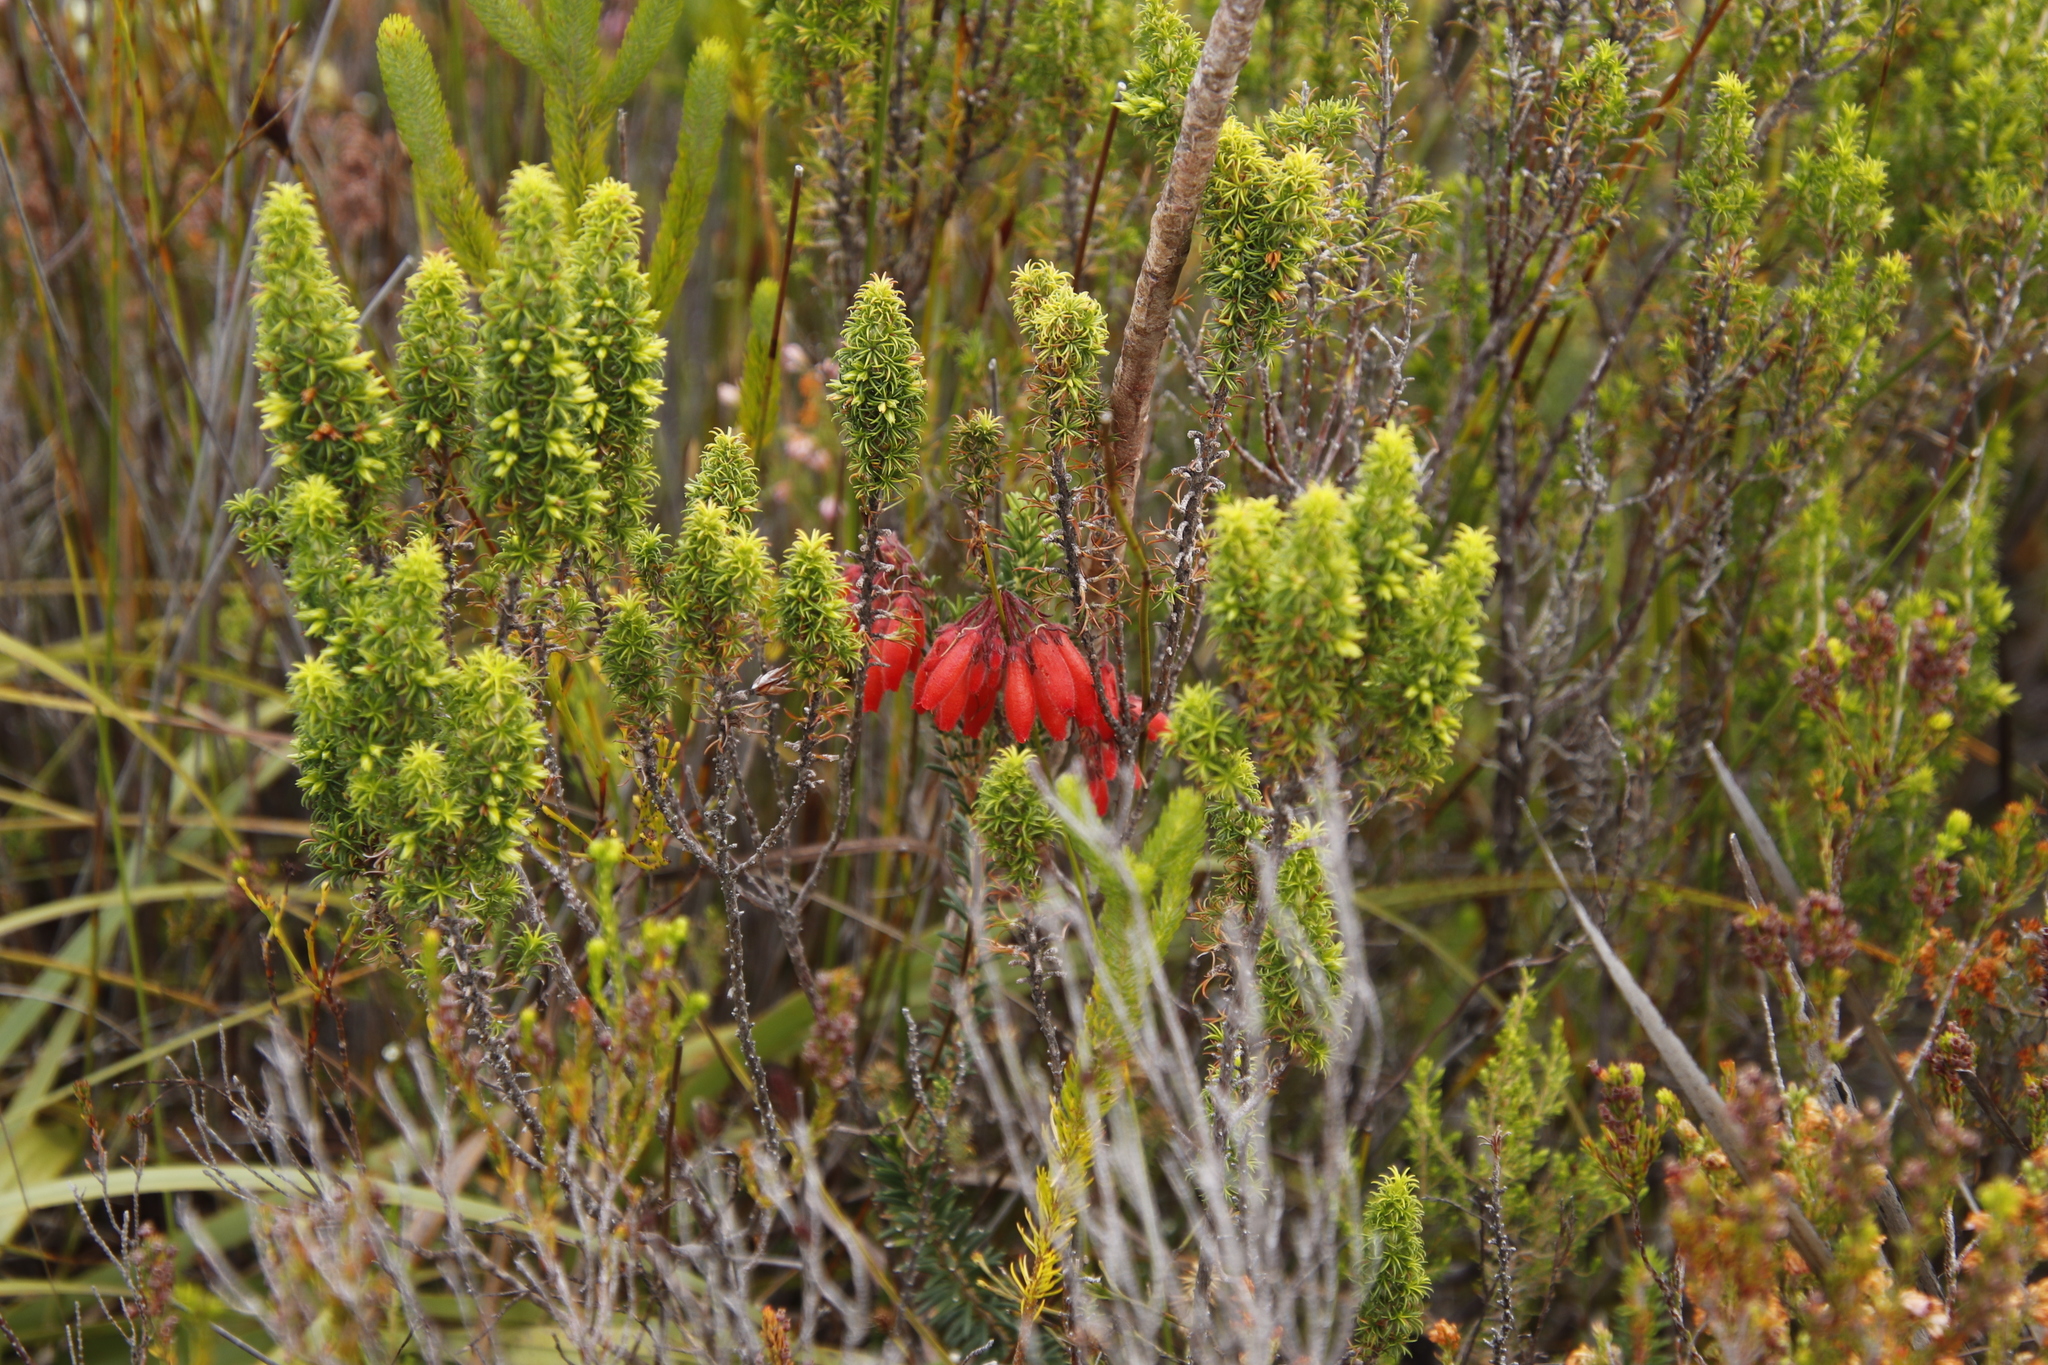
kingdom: Plantae
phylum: Tracheophyta
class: Magnoliopsida
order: Ericales
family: Ericaceae
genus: Erica
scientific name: Erica coccinea
